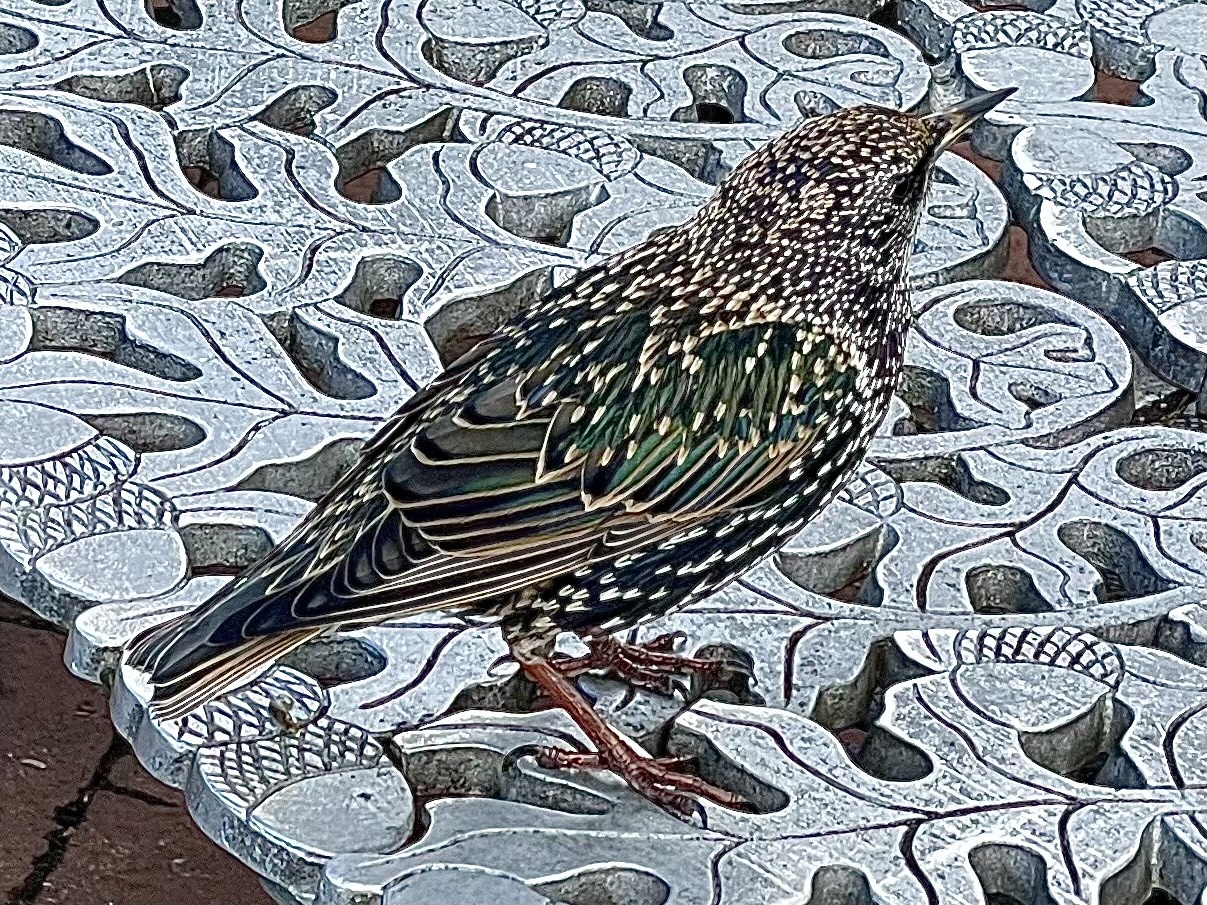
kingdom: Animalia
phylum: Chordata
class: Aves
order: Passeriformes
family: Sturnidae
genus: Sturnus
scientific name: Sturnus vulgaris
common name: Common starling
